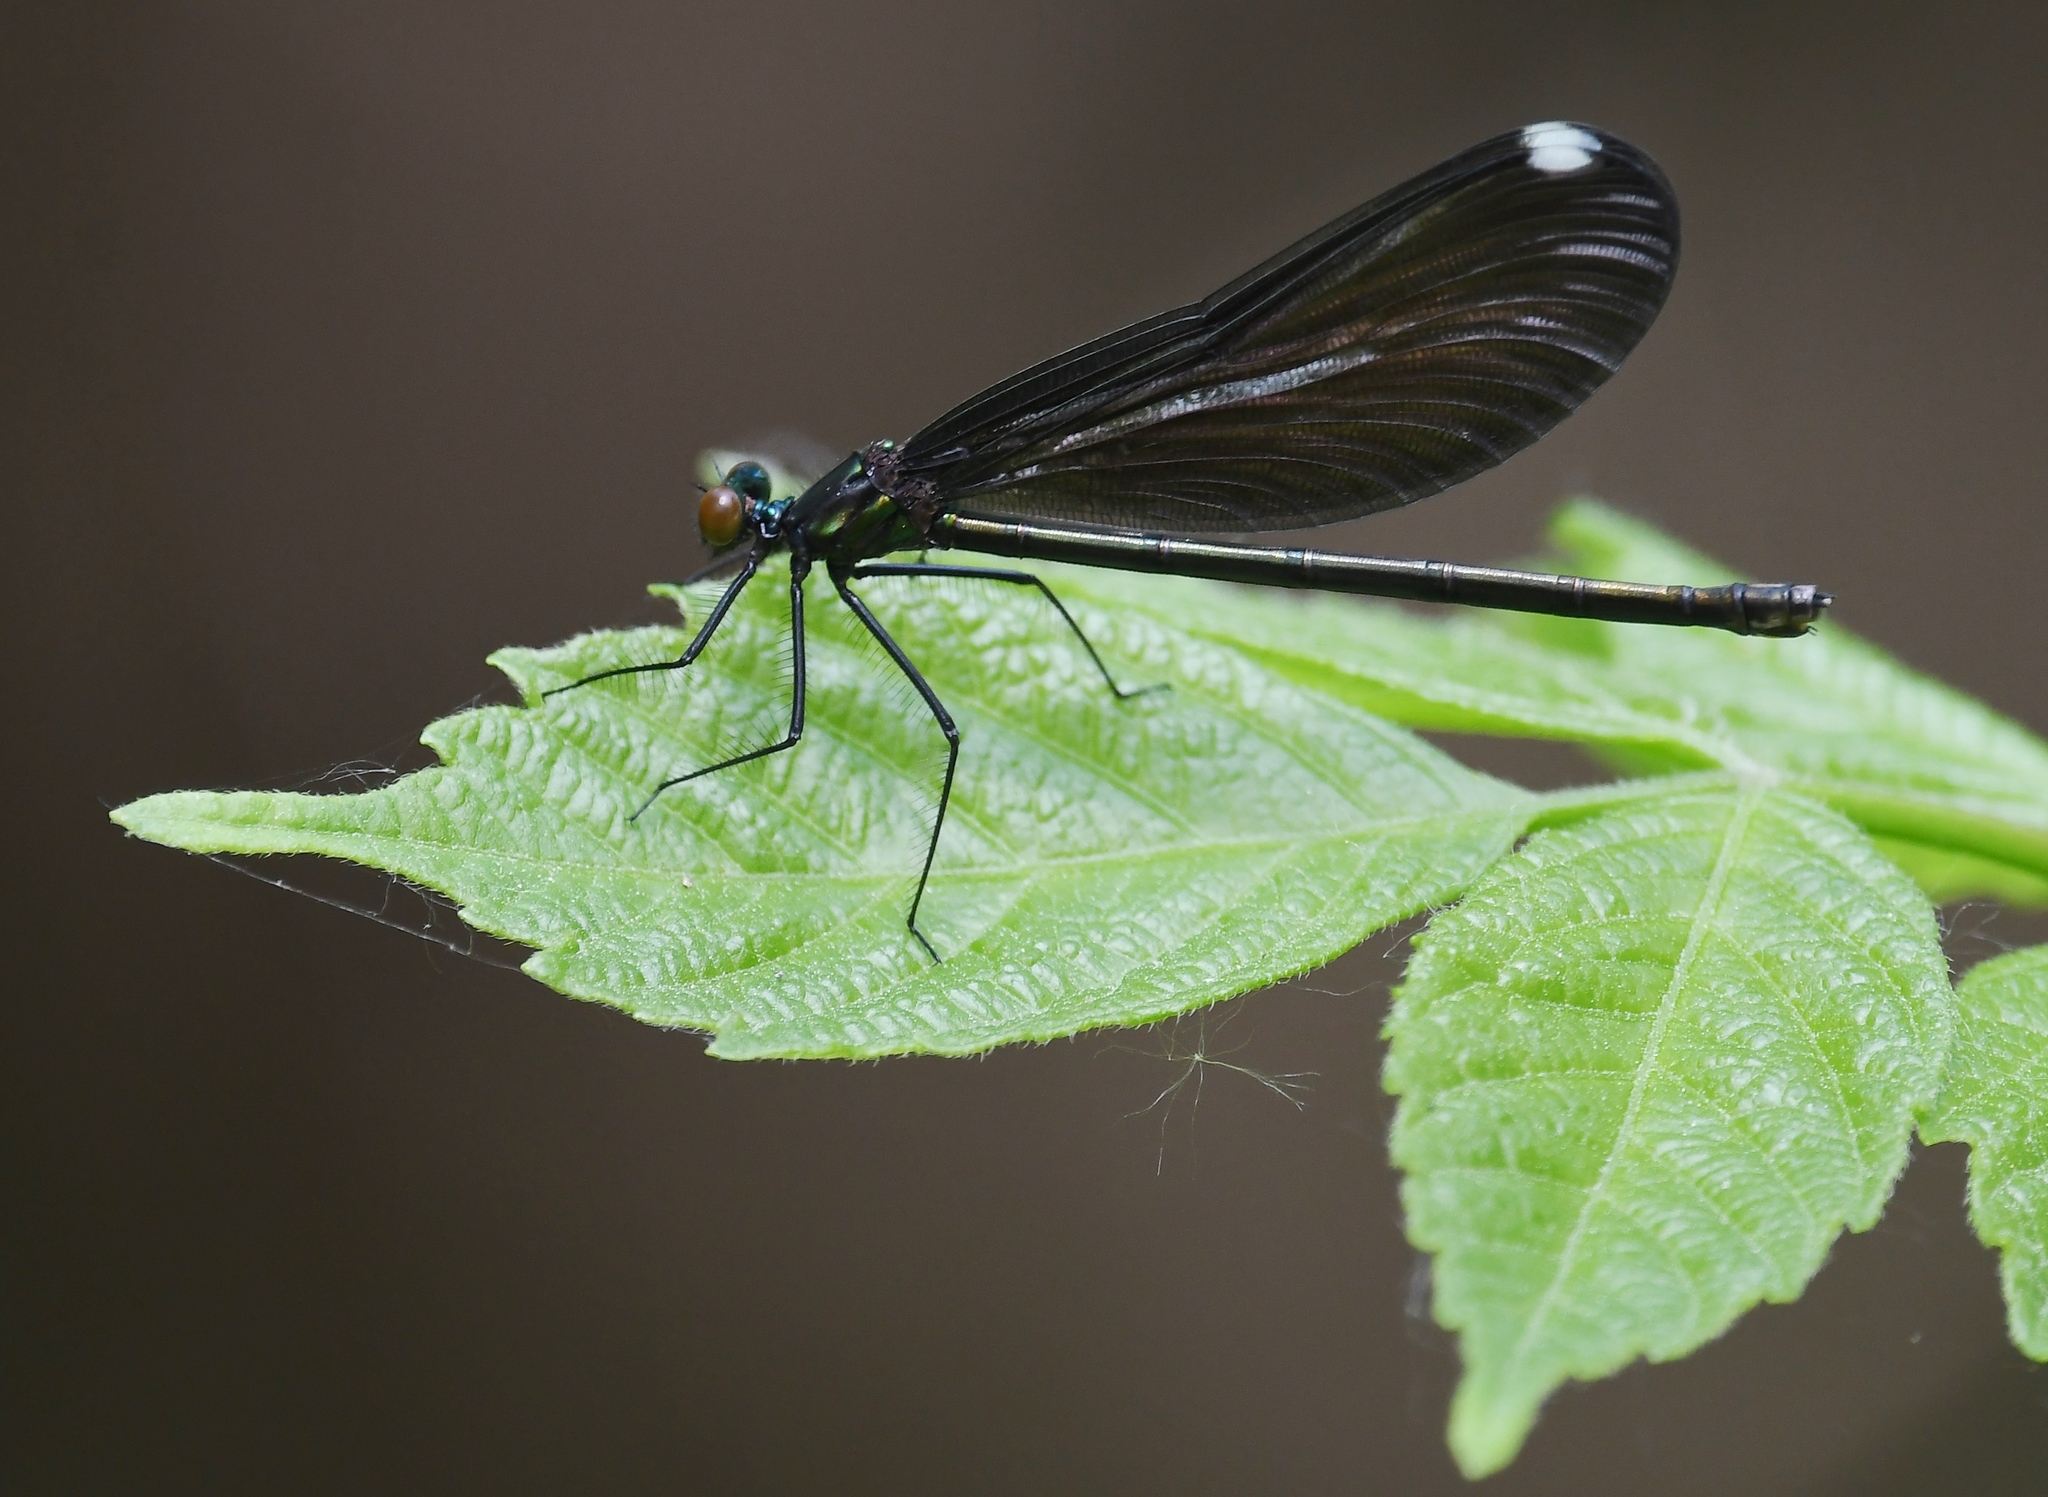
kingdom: Animalia
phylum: Arthropoda
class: Insecta
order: Odonata
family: Calopterygidae
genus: Calopteryx
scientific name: Calopteryx maculata
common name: Ebony jewelwing
